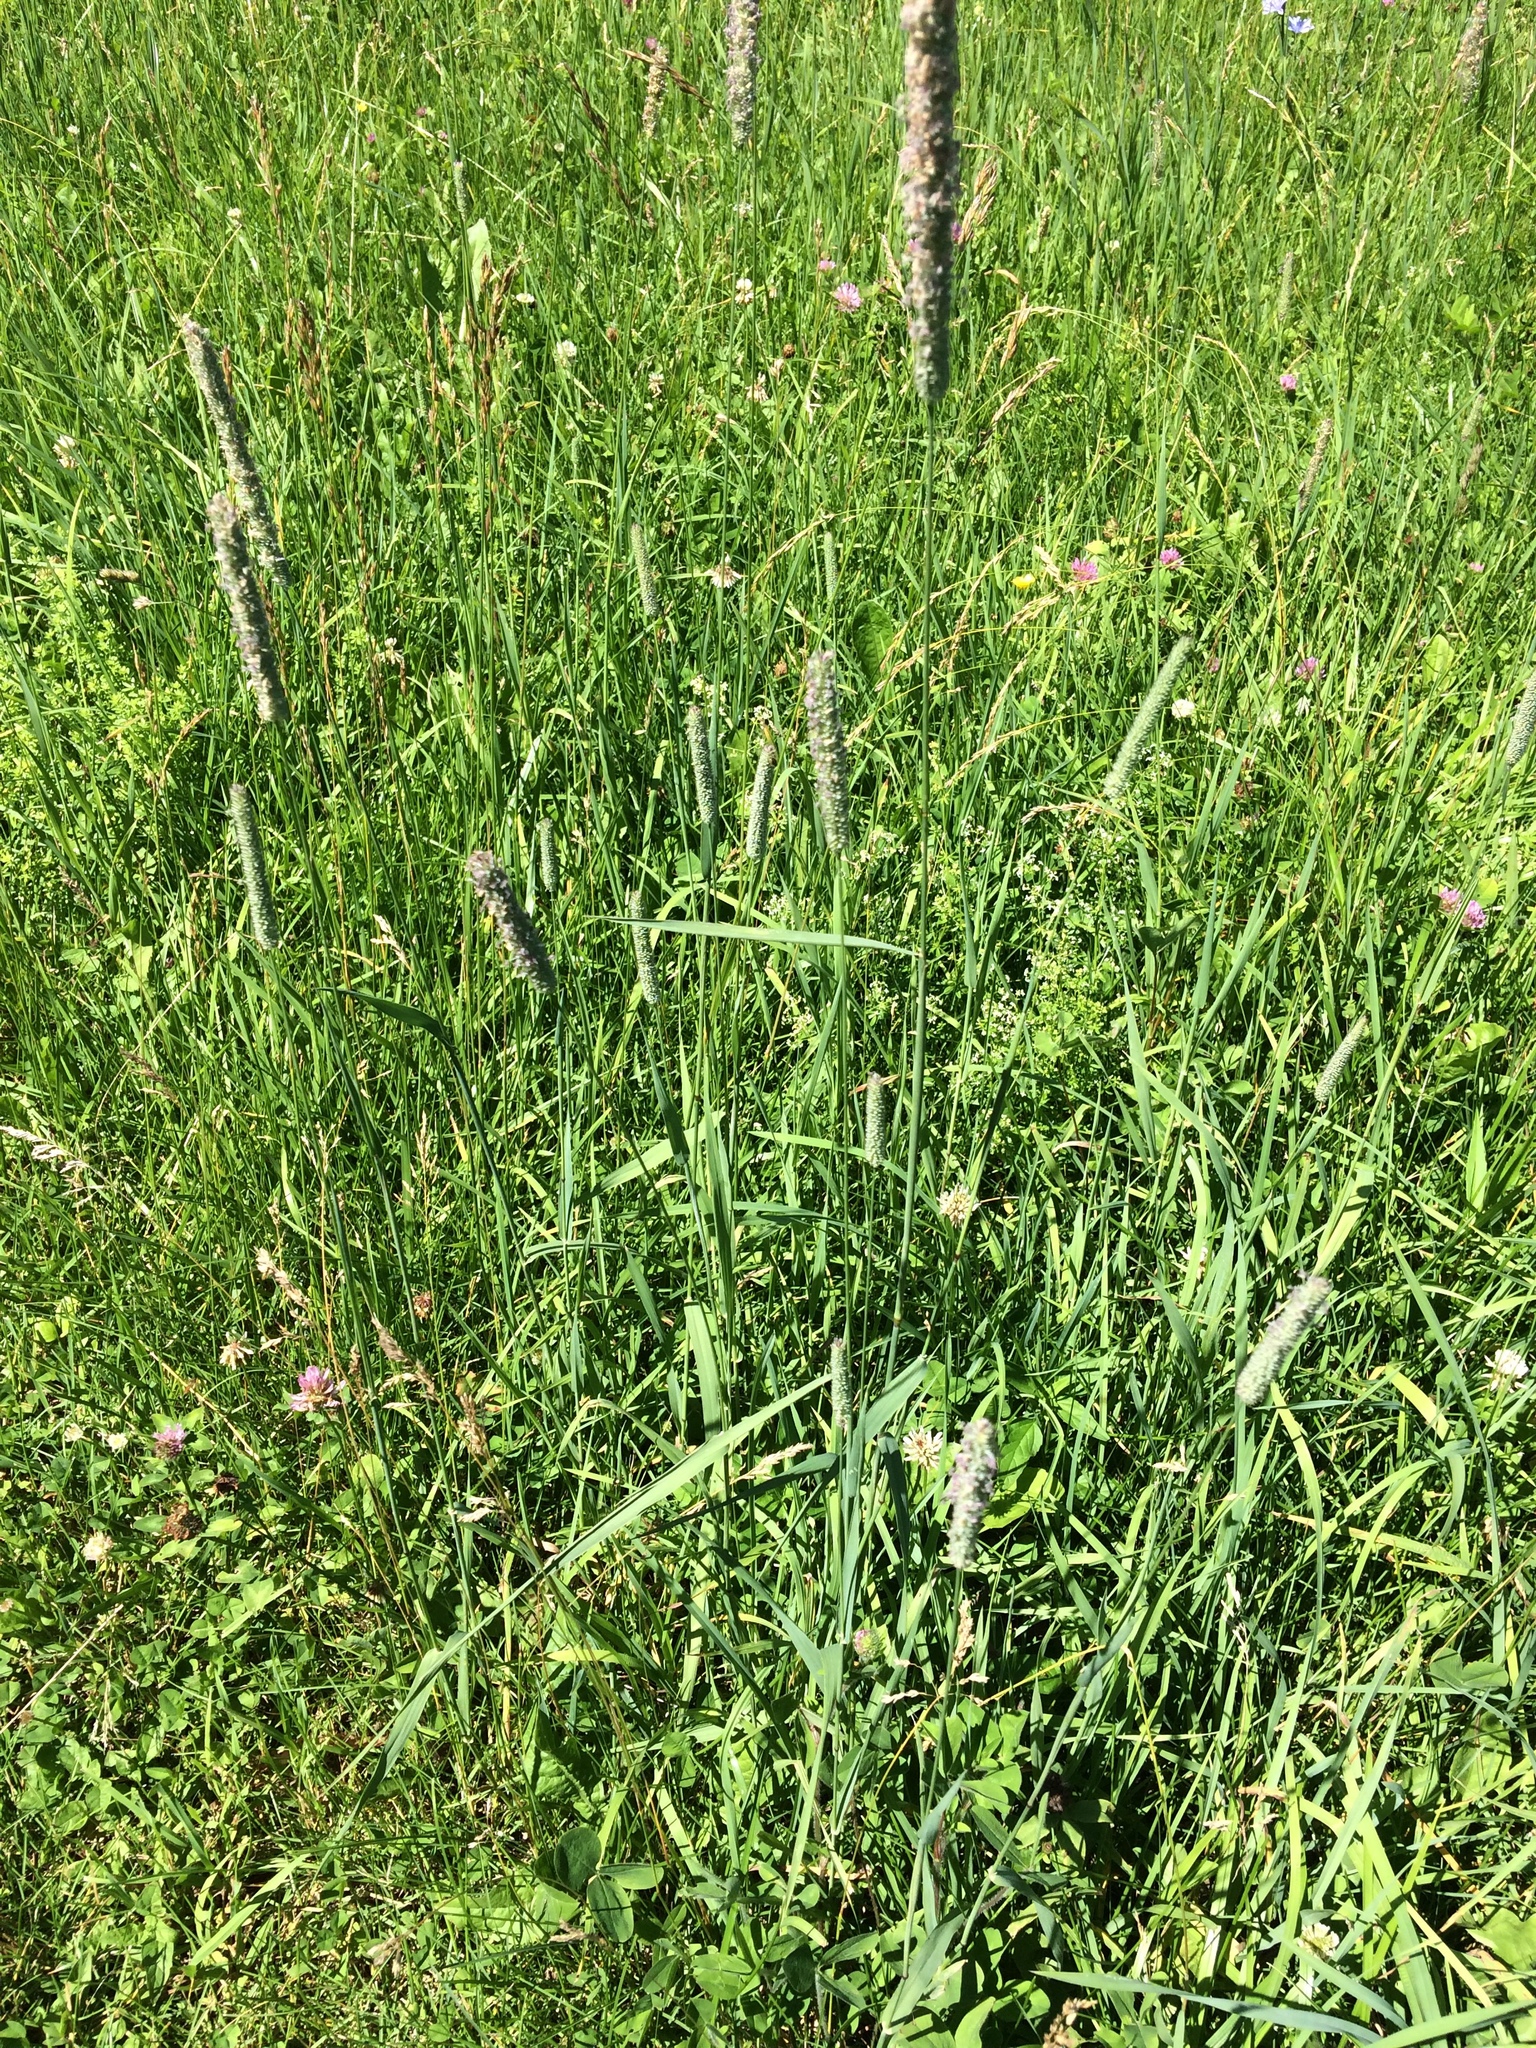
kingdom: Plantae
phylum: Tracheophyta
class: Liliopsida
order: Poales
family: Poaceae
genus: Phleum
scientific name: Phleum pratense
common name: Timothy grass
